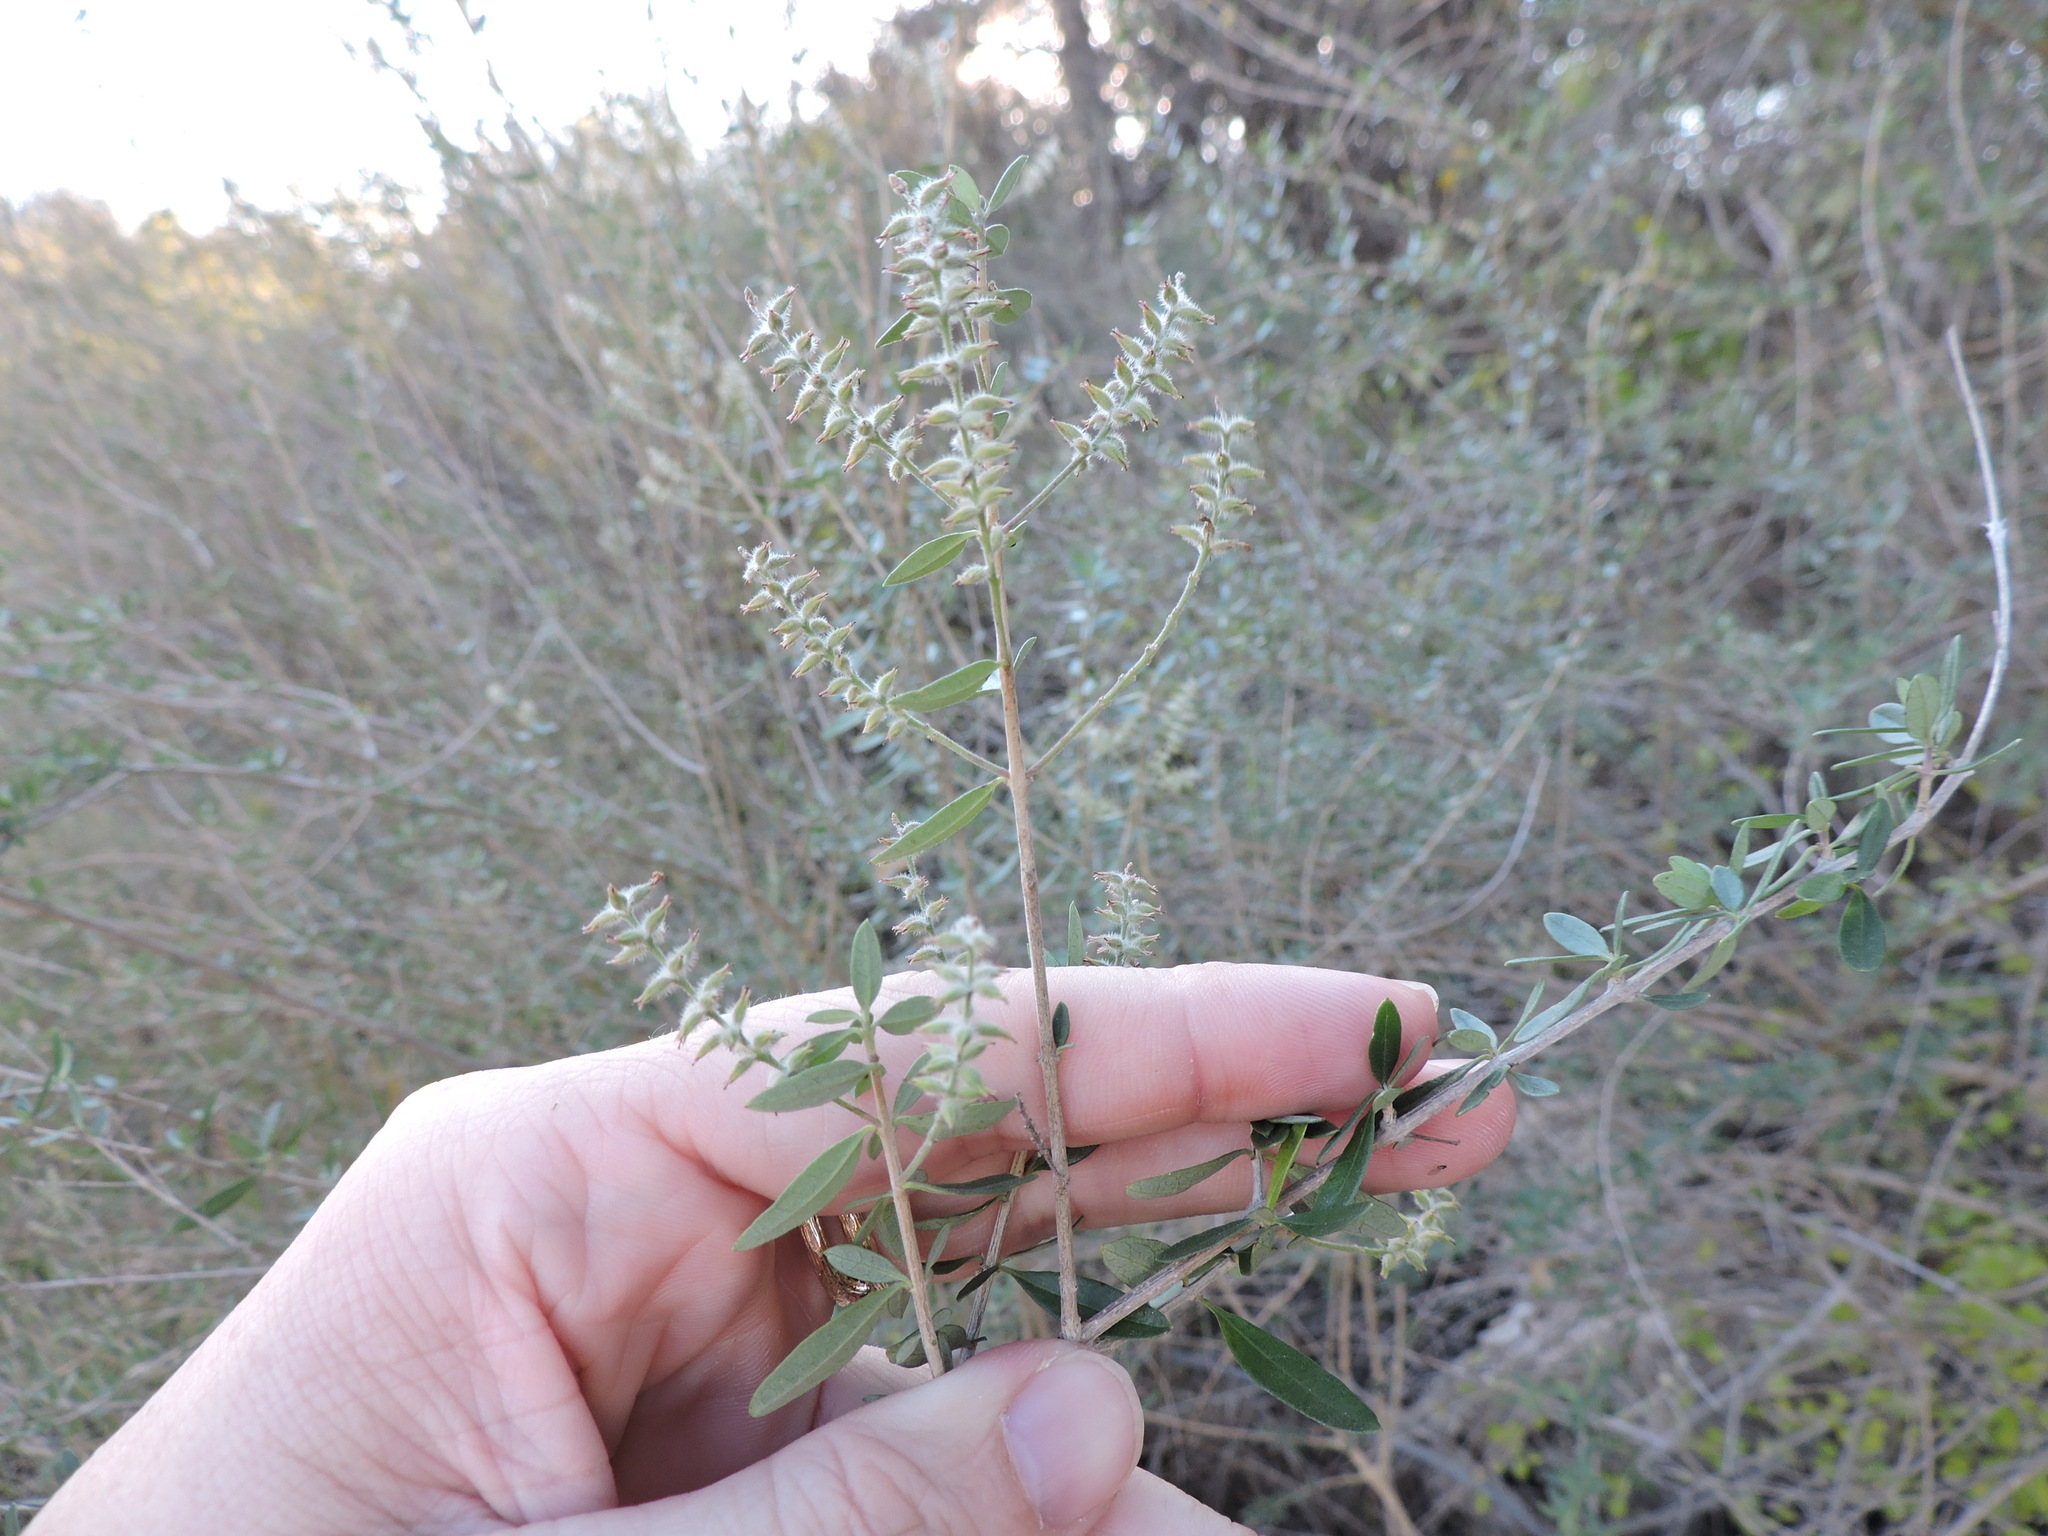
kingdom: Plantae
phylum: Tracheophyta
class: Magnoliopsida
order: Lamiales
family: Verbenaceae
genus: Aloysia
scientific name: Aloysia gratissima
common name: Common bee-brush
